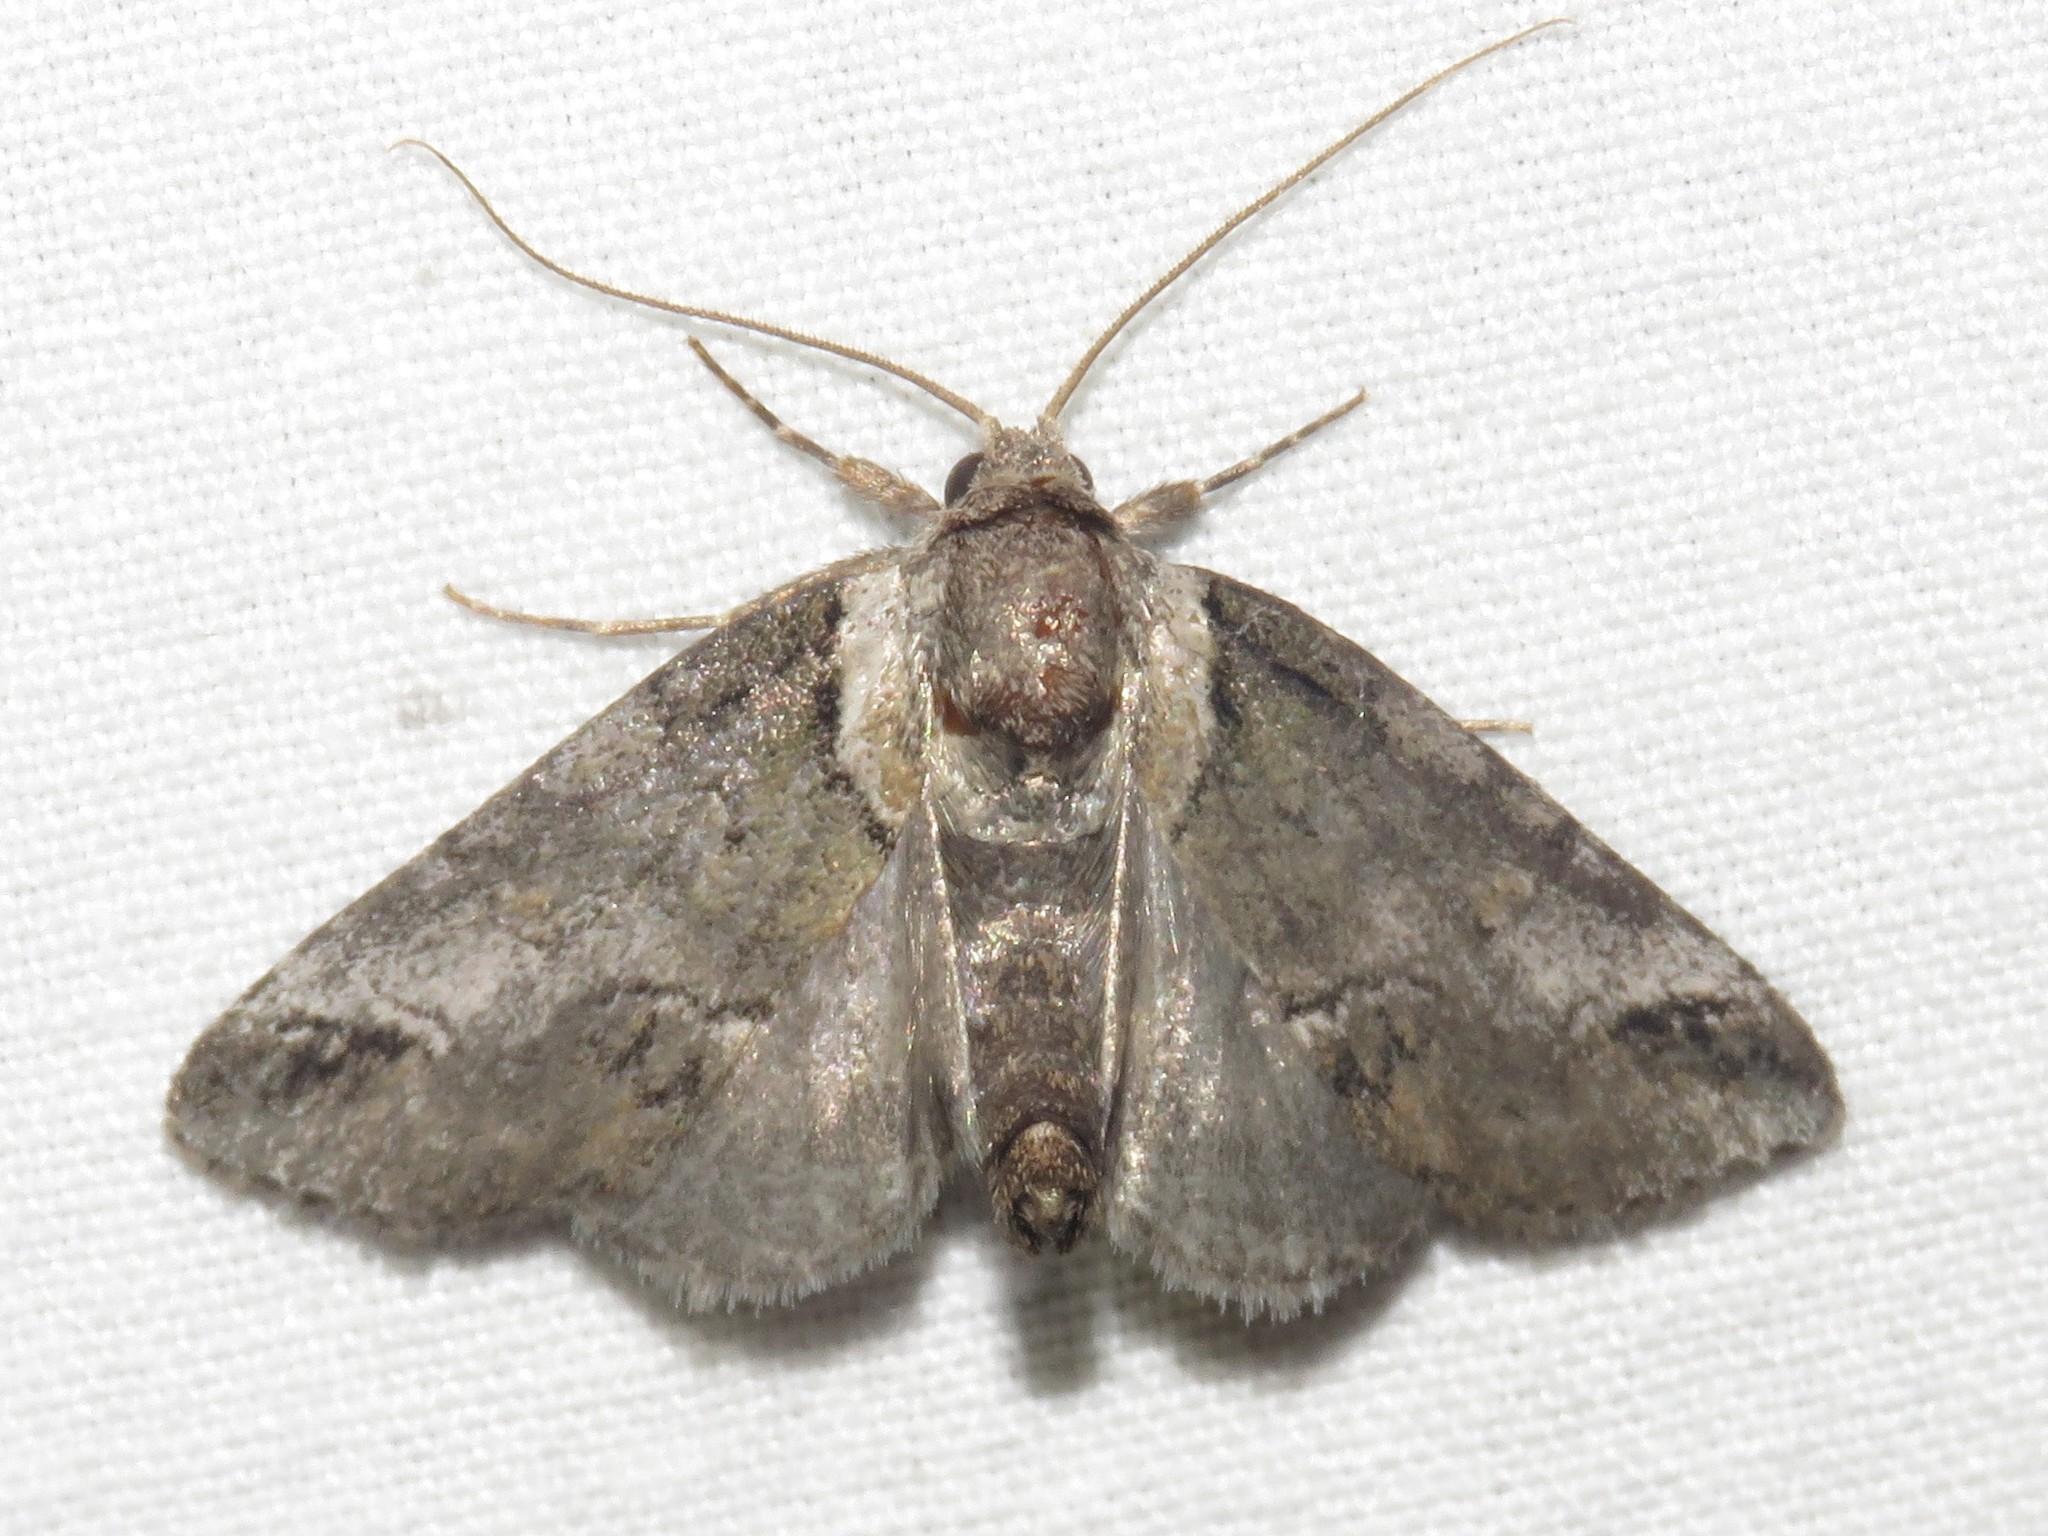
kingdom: Animalia
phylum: Arthropoda
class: Insecta
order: Lepidoptera
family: Nolidae
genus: Baileya
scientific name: Baileya australis
